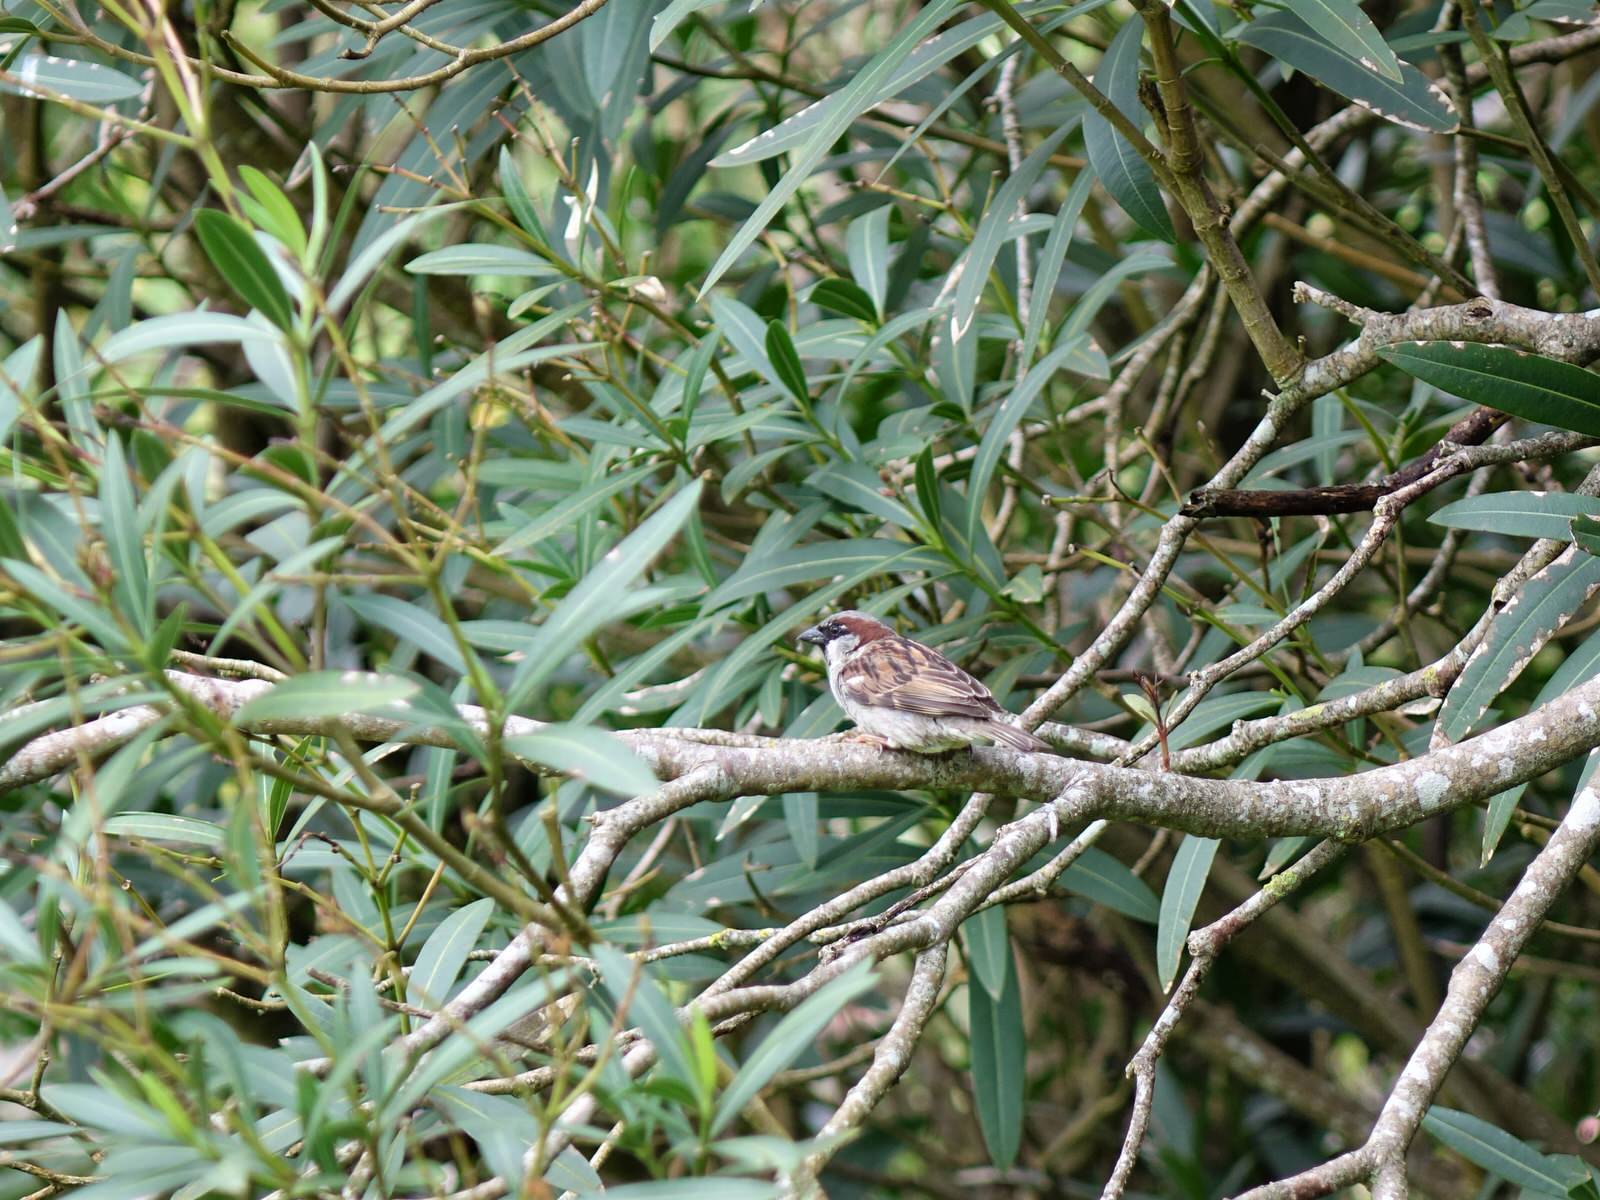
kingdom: Animalia
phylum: Chordata
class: Aves
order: Passeriformes
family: Passeridae
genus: Passer
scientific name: Passer domesticus
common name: House sparrow
